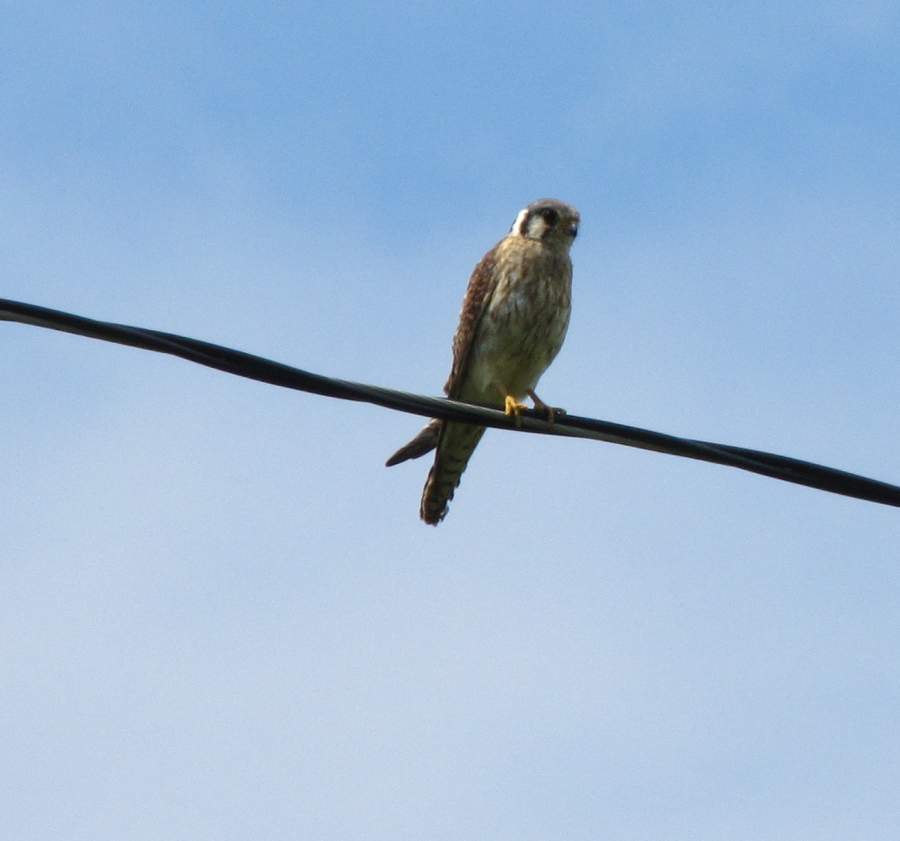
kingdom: Animalia
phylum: Chordata
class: Aves
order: Falconiformes
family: Falconidae
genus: Falco
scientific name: Falco sparverius
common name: American kestrel
